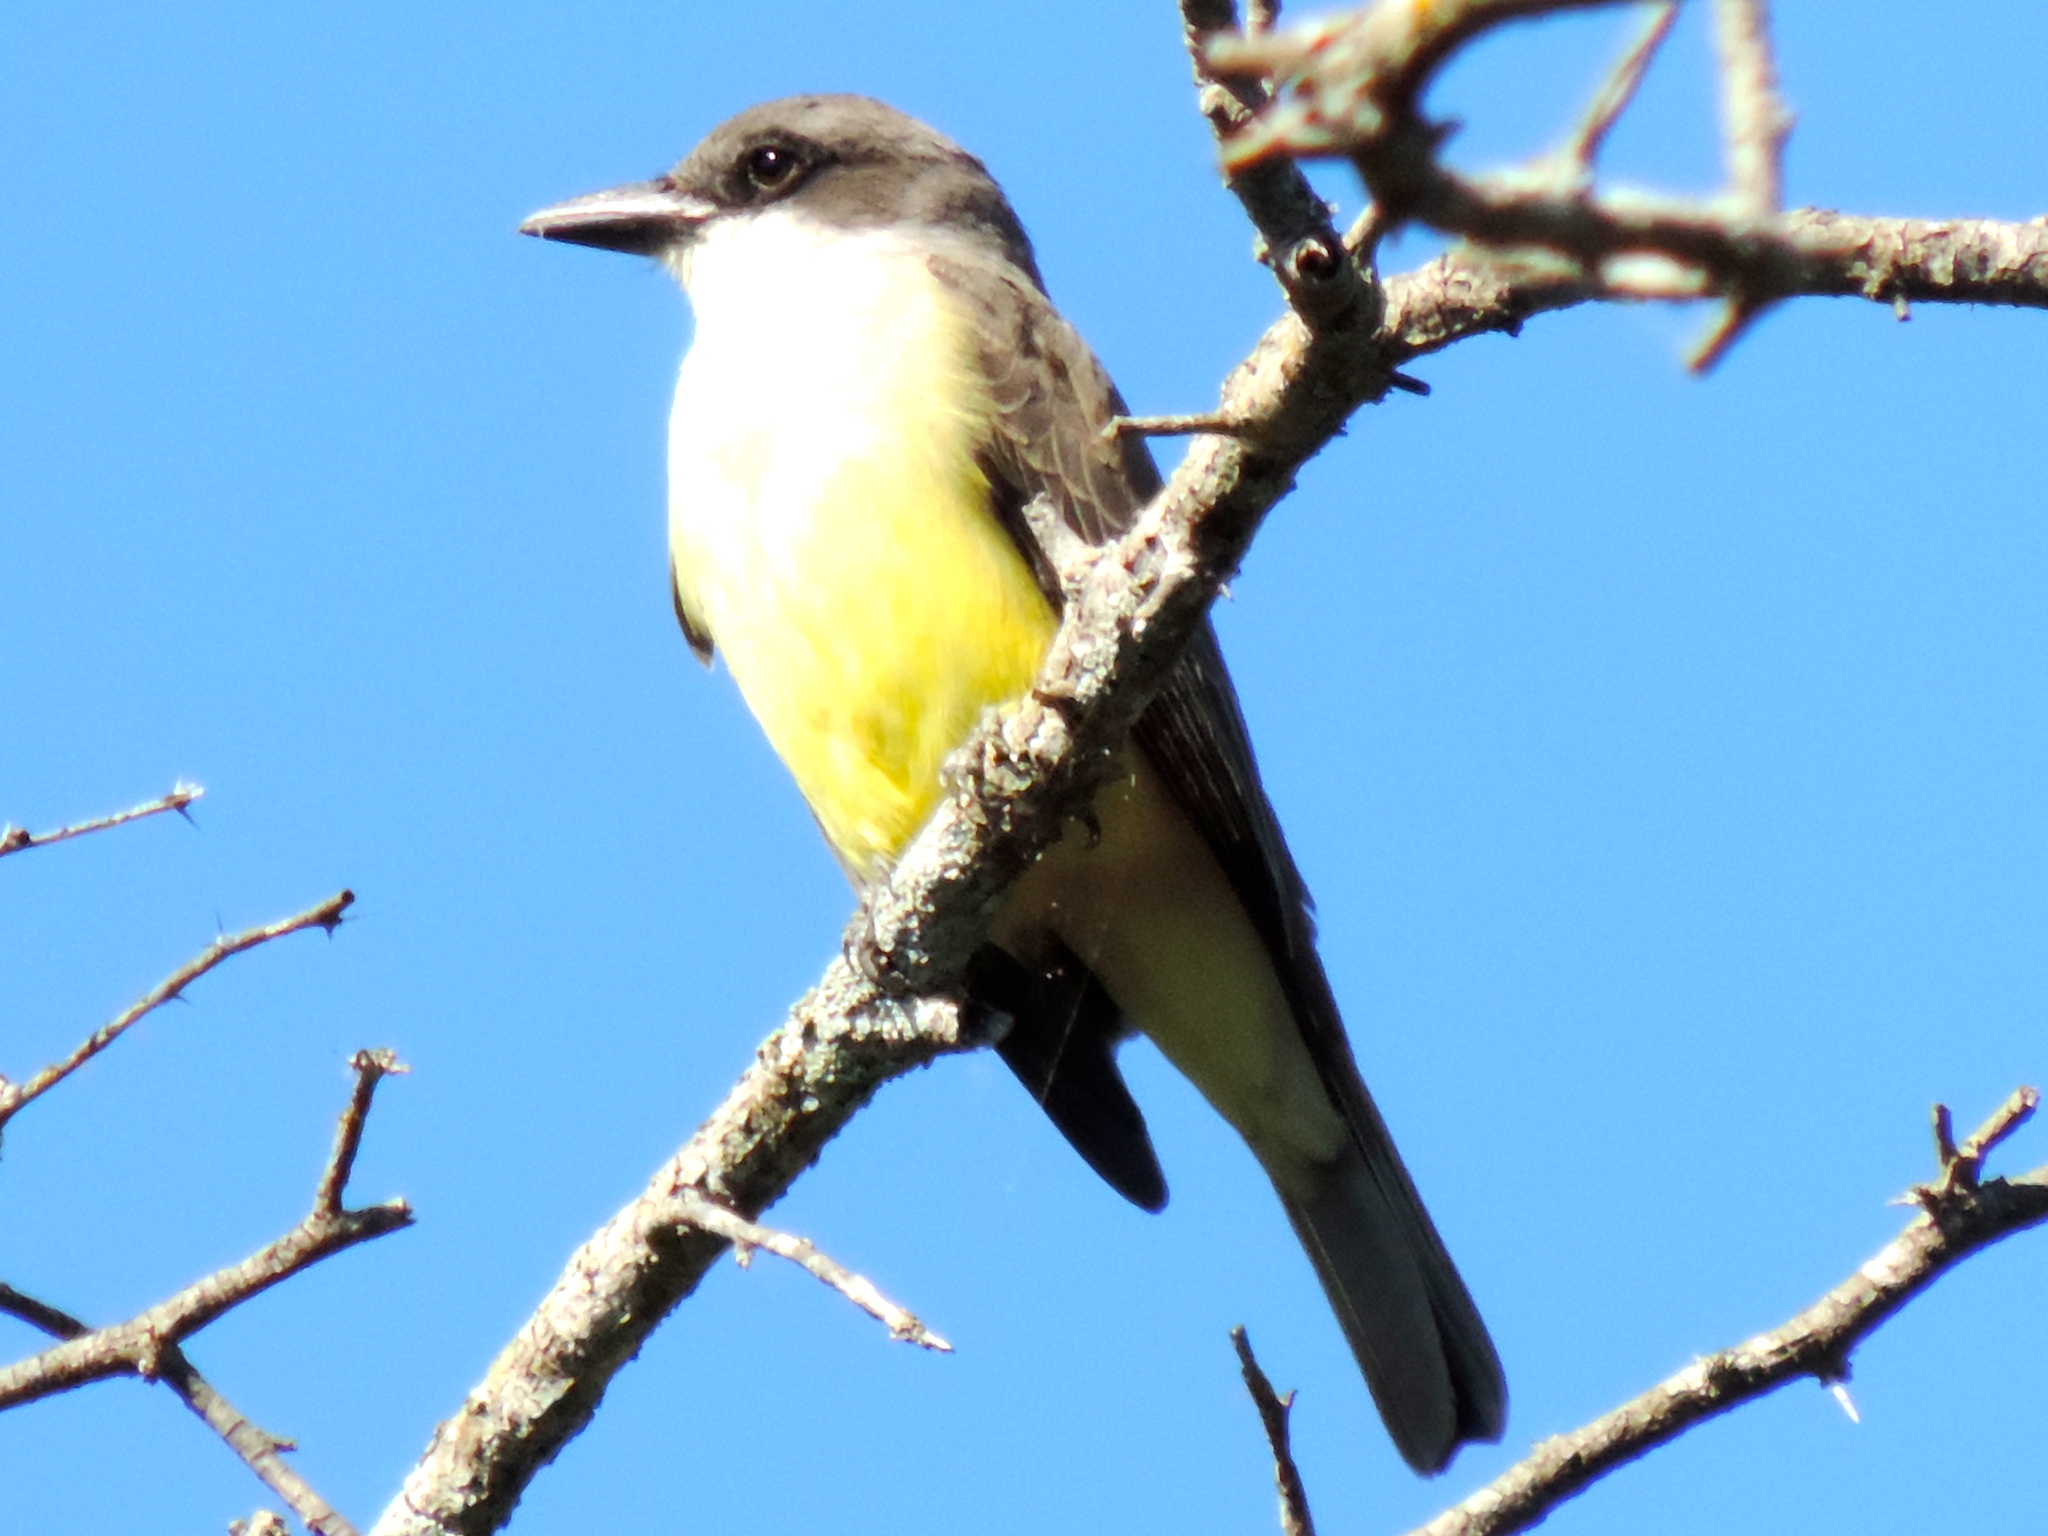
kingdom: Animalia
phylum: Chordata
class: Aves
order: Passeriformes
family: Tyrannidae
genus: Tyrannus
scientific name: Tyrannus crassirostris
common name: Thick-billed kingbird
